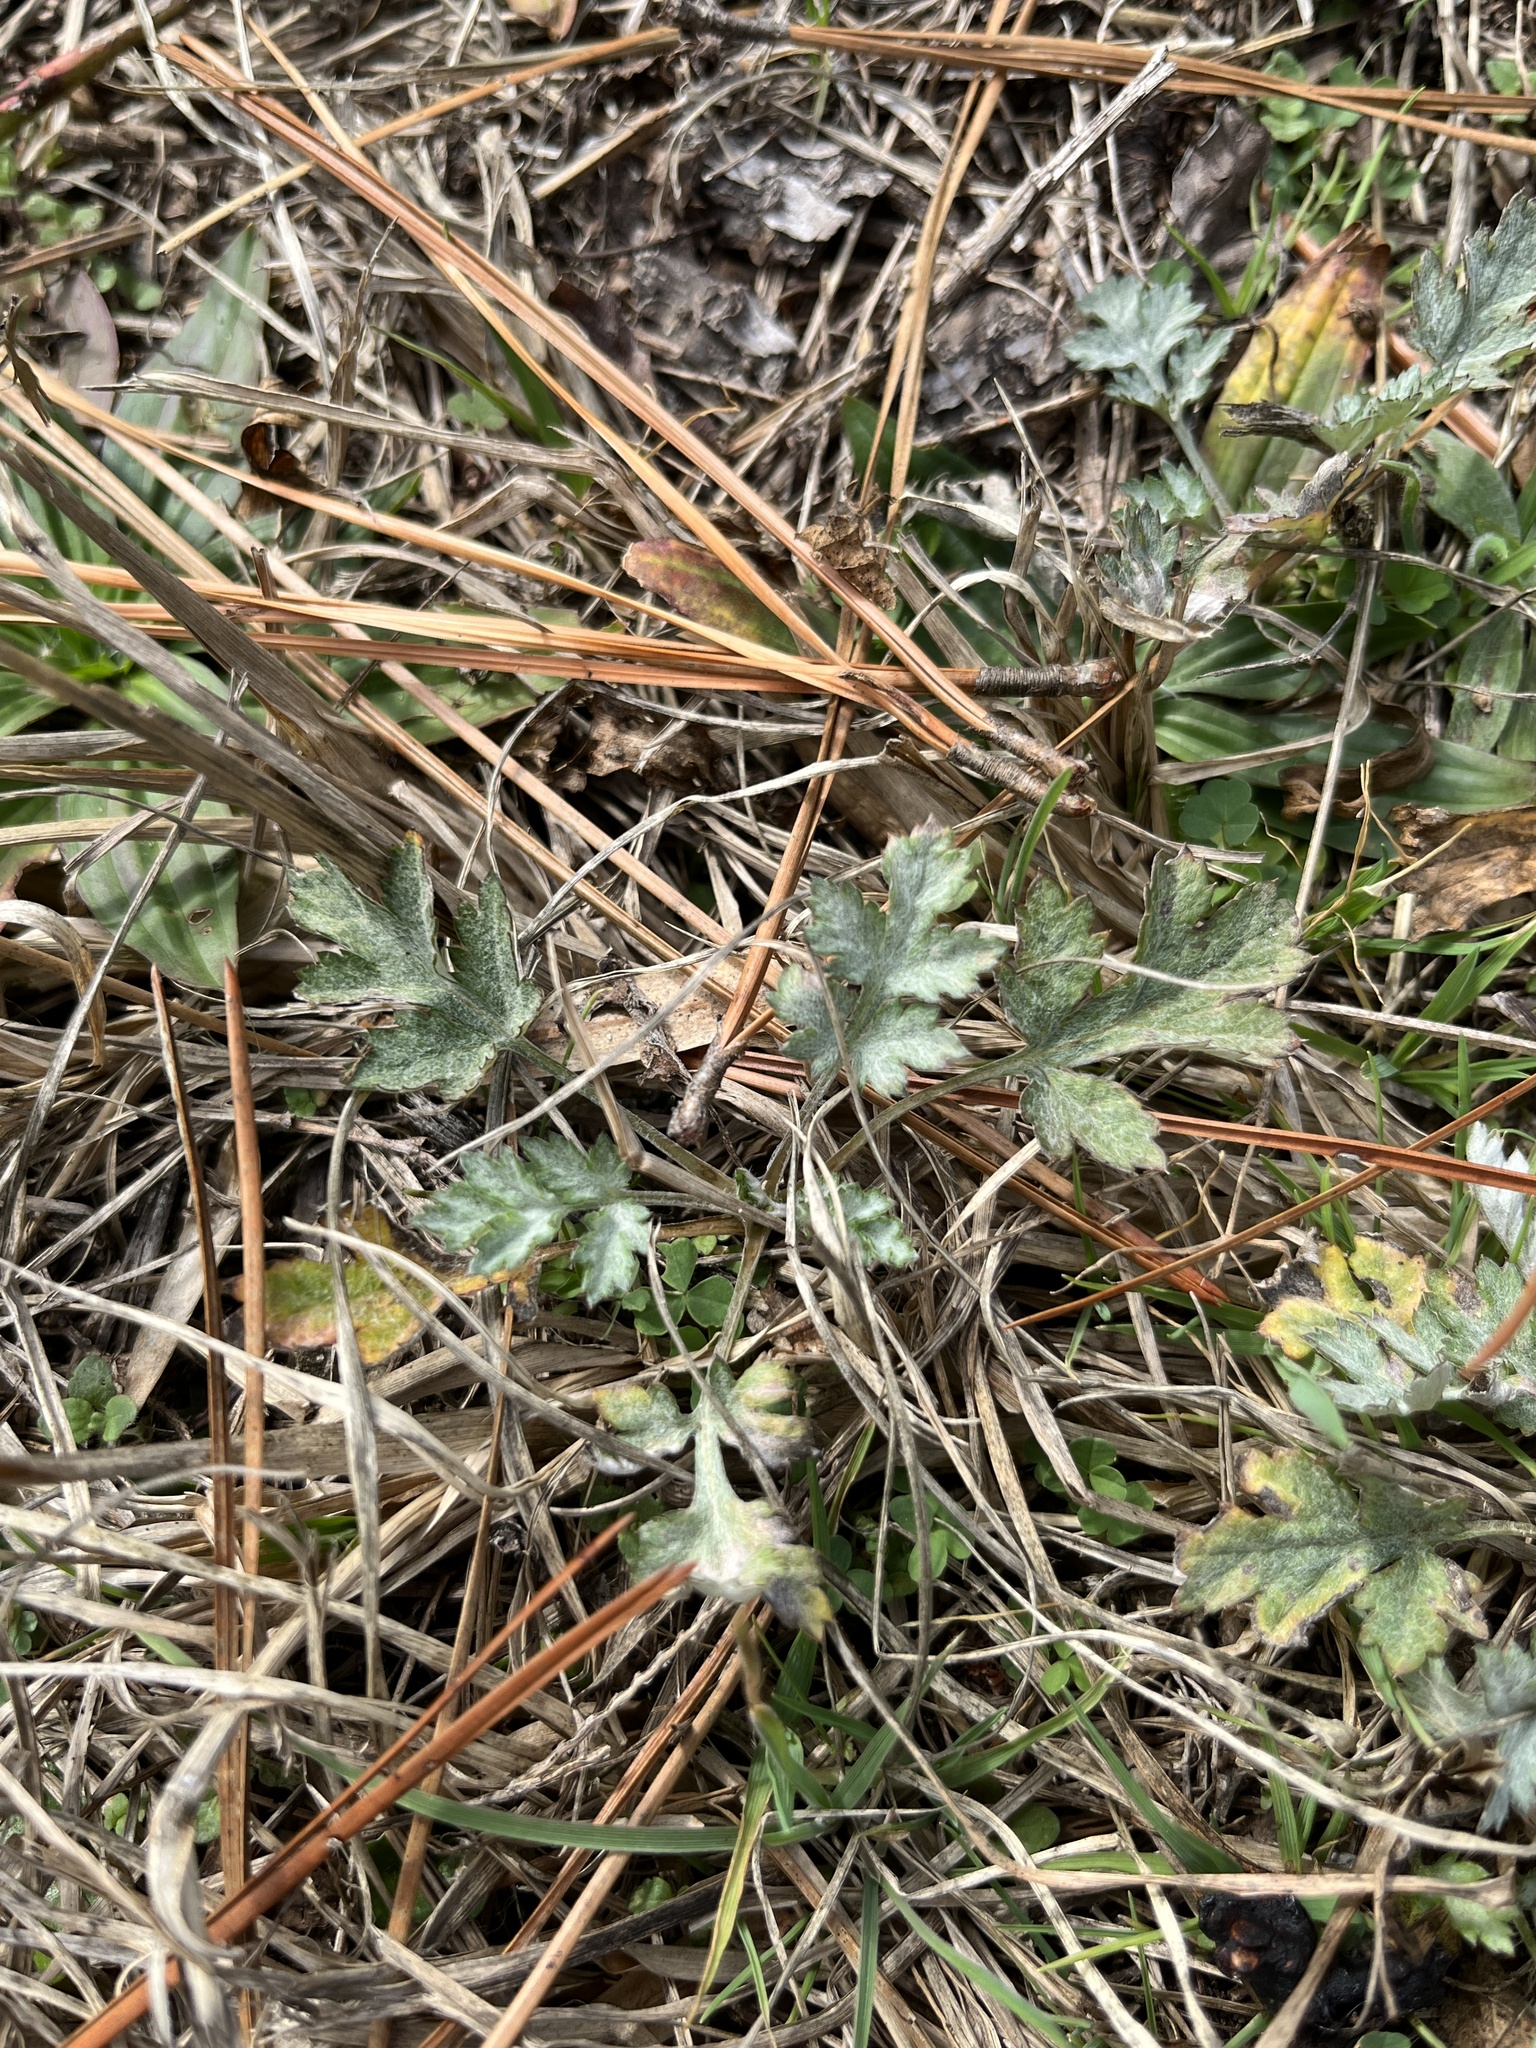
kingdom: Plantae
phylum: Tracheophyta
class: Magnoliopsida
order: Asterales
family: Asteraceae
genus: Artemisia
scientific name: Artemisia vulgaris
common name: Mugwort
